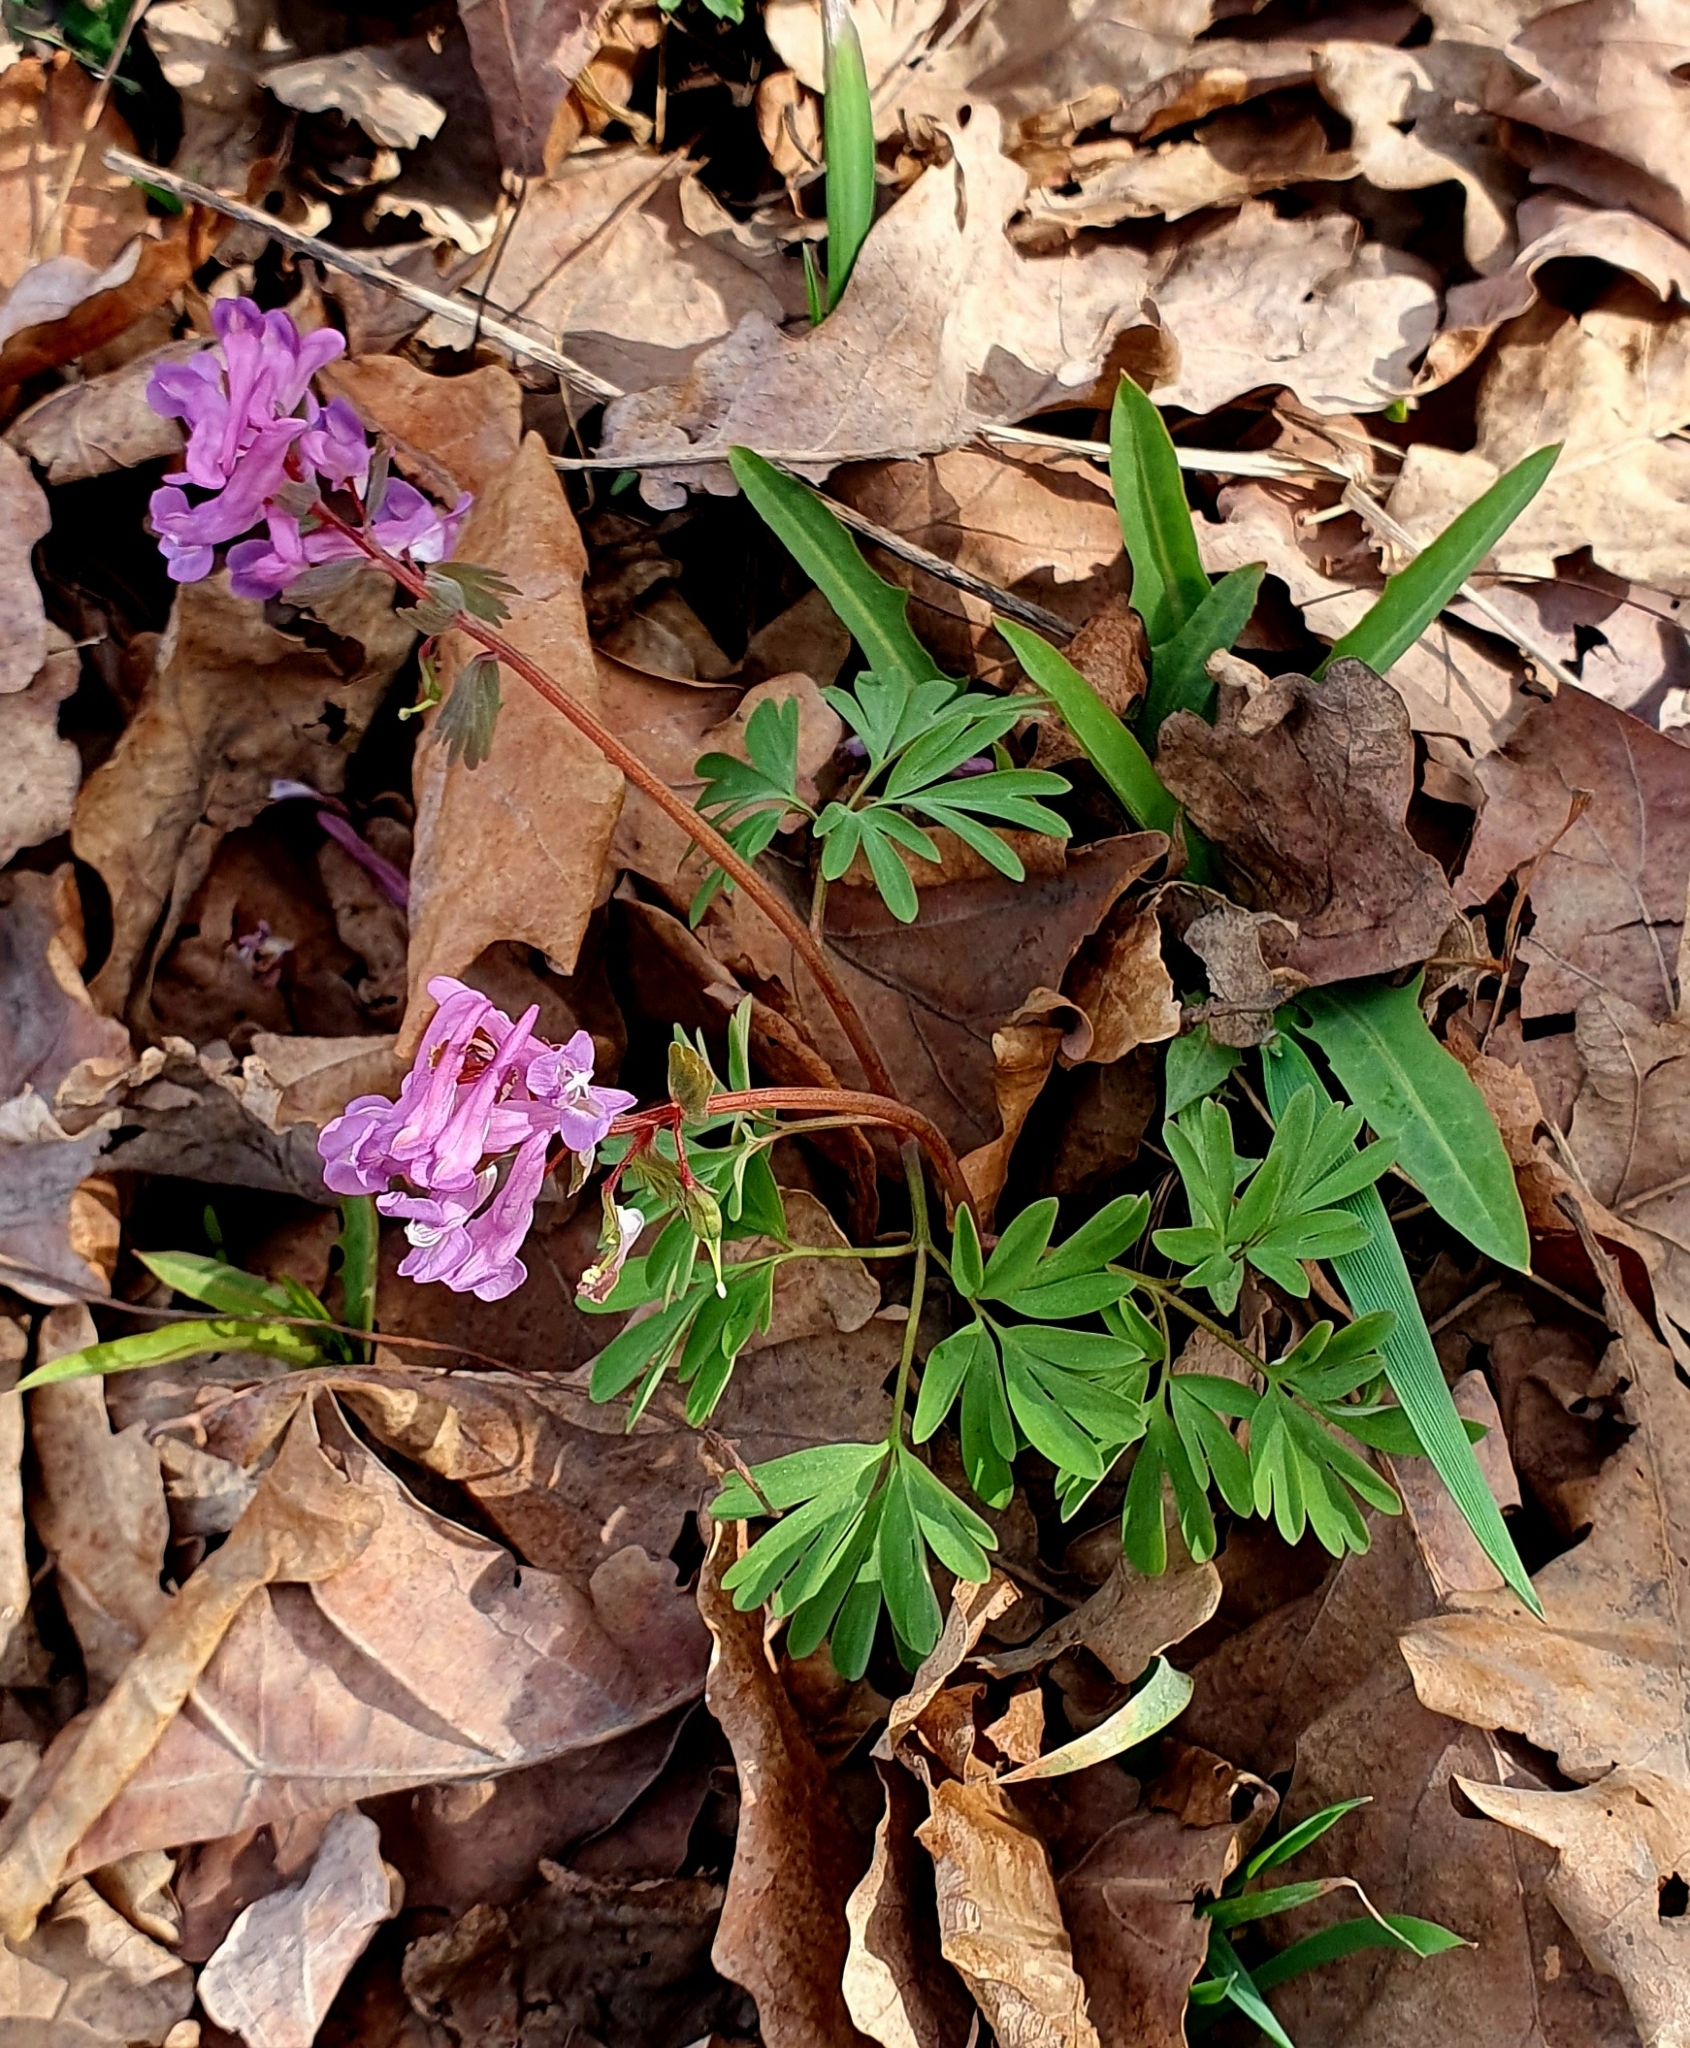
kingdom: Plantae
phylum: Tracheophyta
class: Magnoliopsida
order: Ranunculales
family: Papaveraceae
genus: Corydalis
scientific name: Corydalis solida
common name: Bird-in-a-bush
